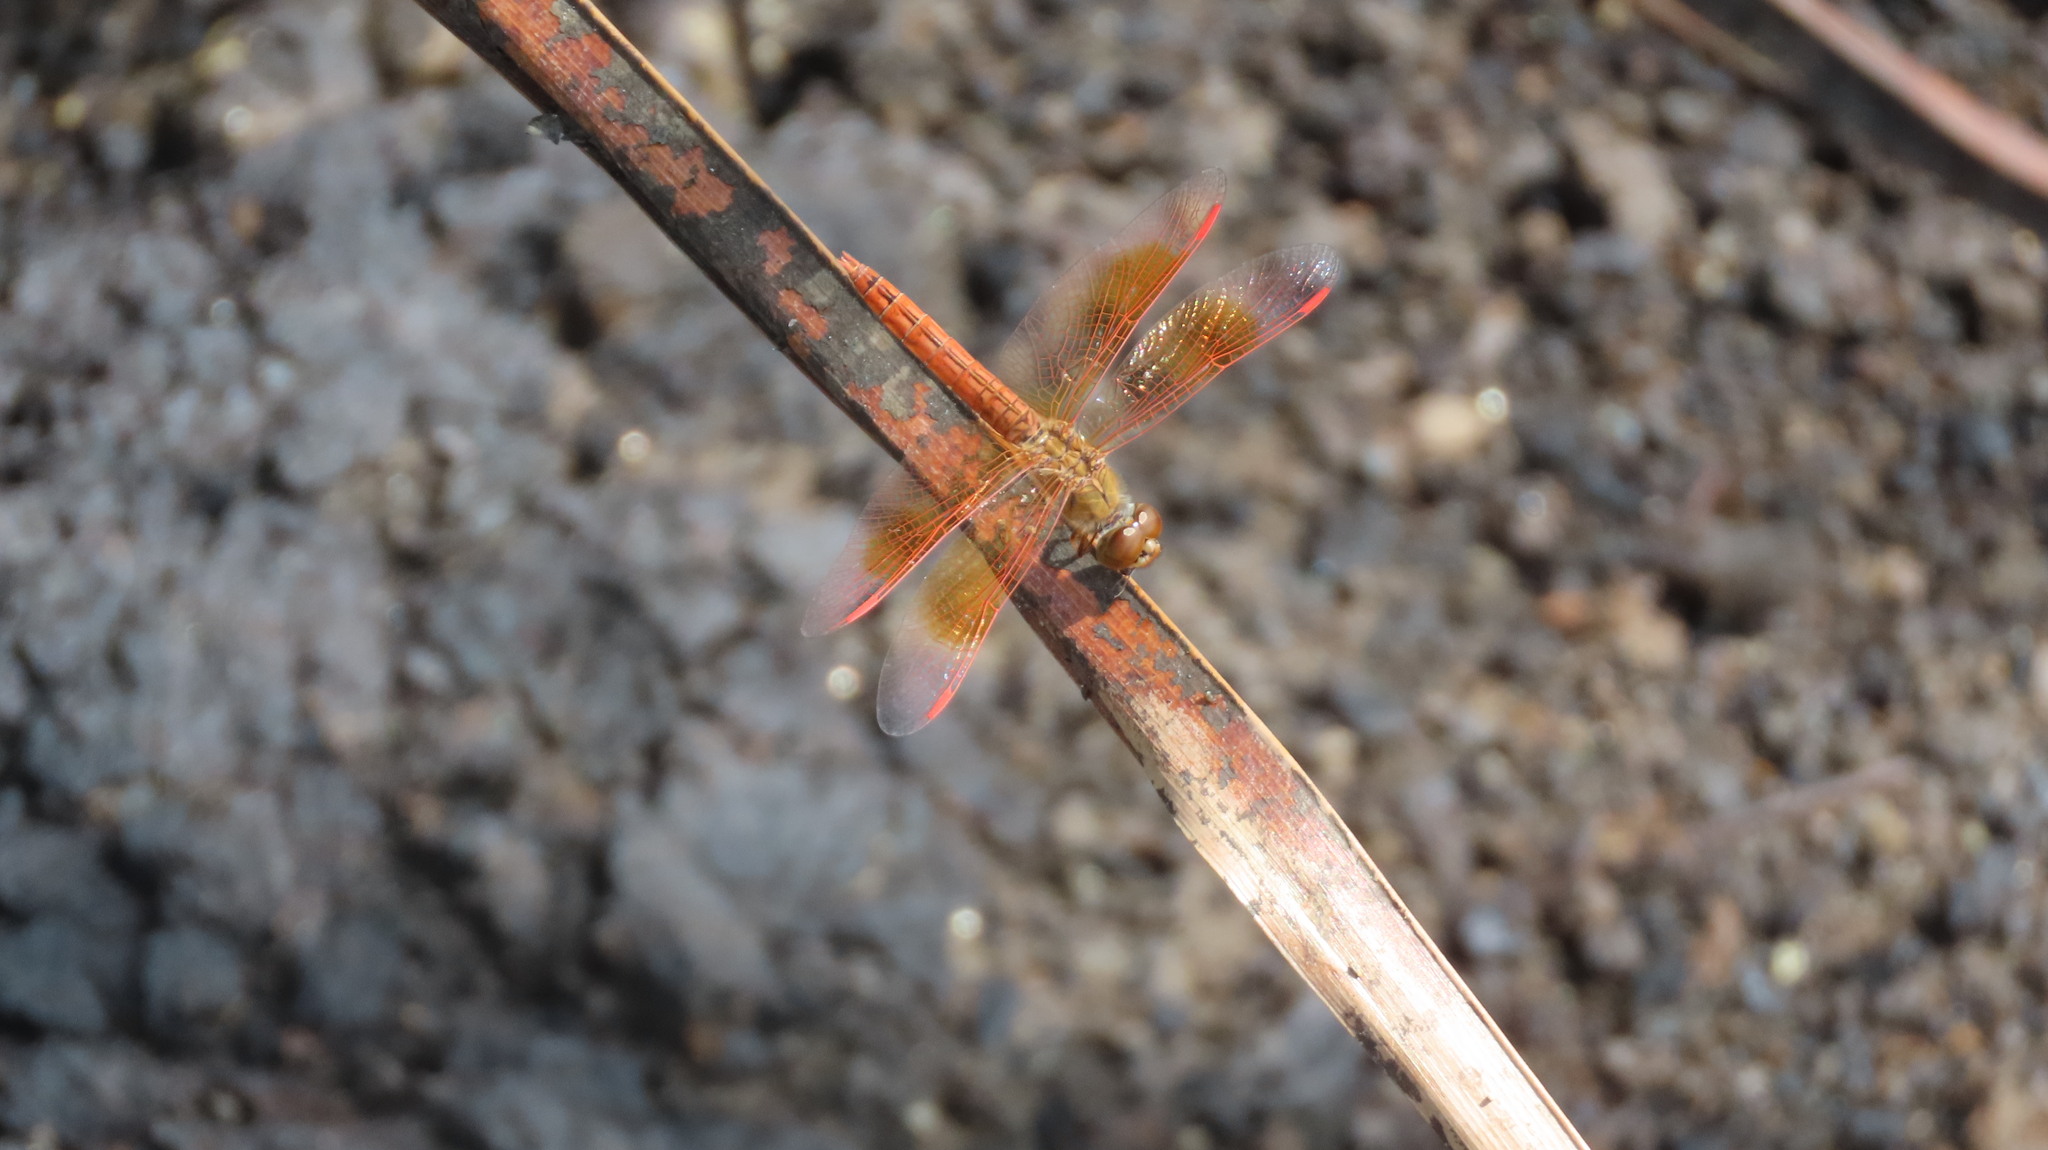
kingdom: Animalia
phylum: Arthropoda
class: Insecta
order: Odonata
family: Libellulidae
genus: Brachythemis
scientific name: Brachythemis contaminata
